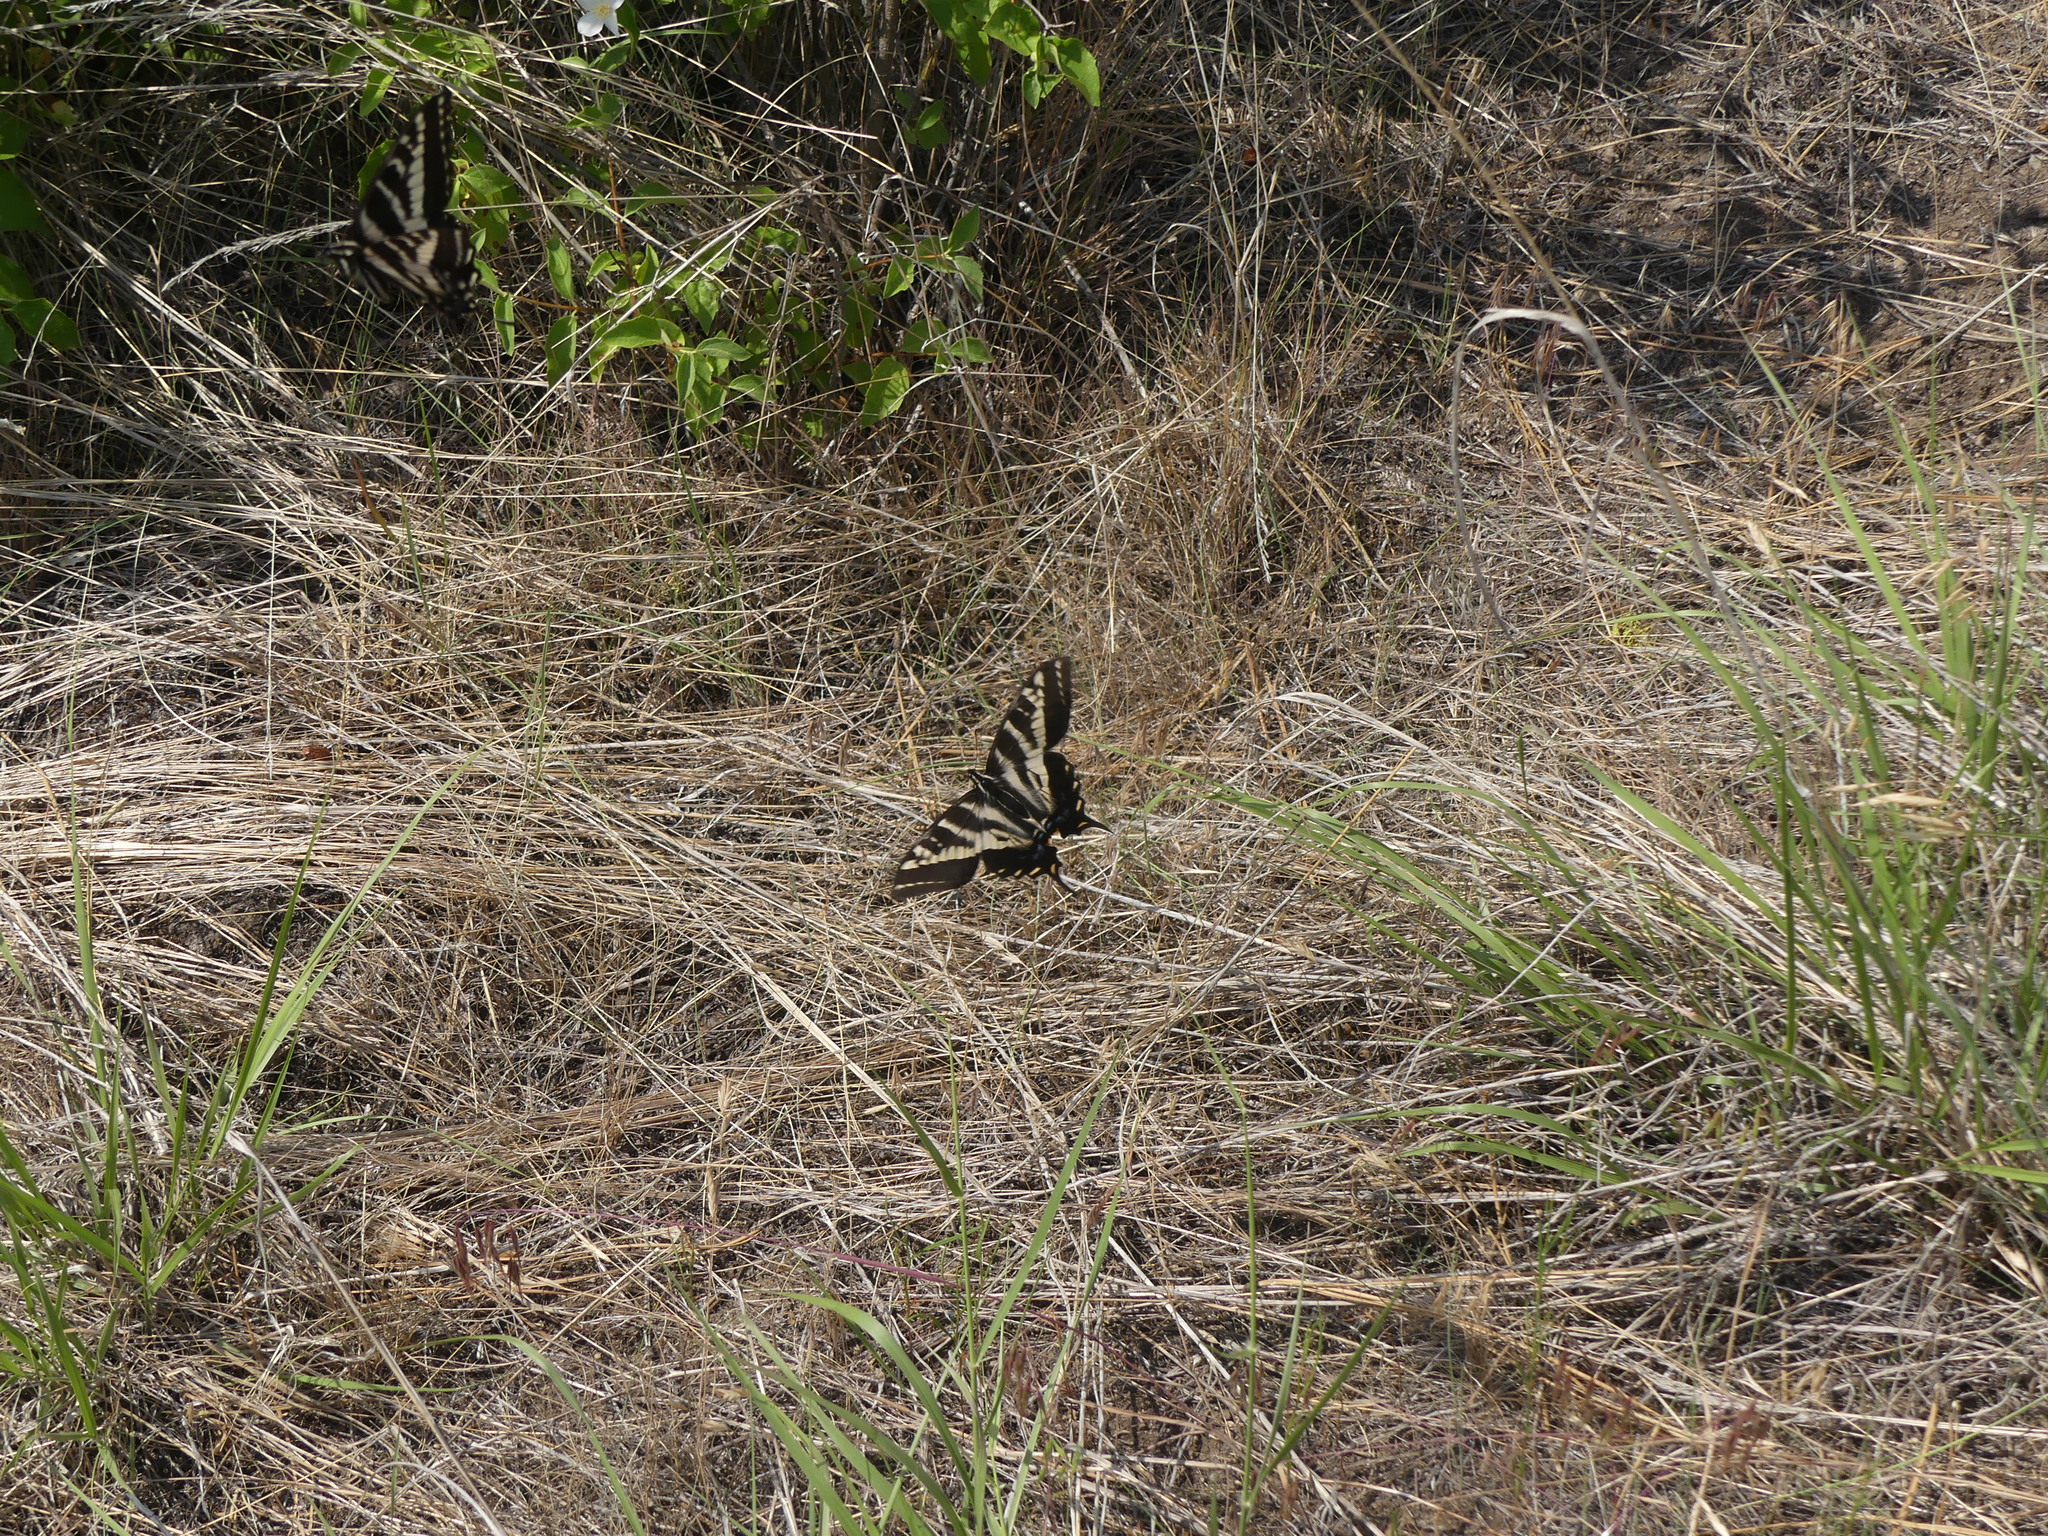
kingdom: Animalia
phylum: Arthropoda
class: Insecta
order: Lepidoptera
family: Papilionidae
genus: Papilio
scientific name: Papilio eurymedon
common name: Pale tiger swallowtail
